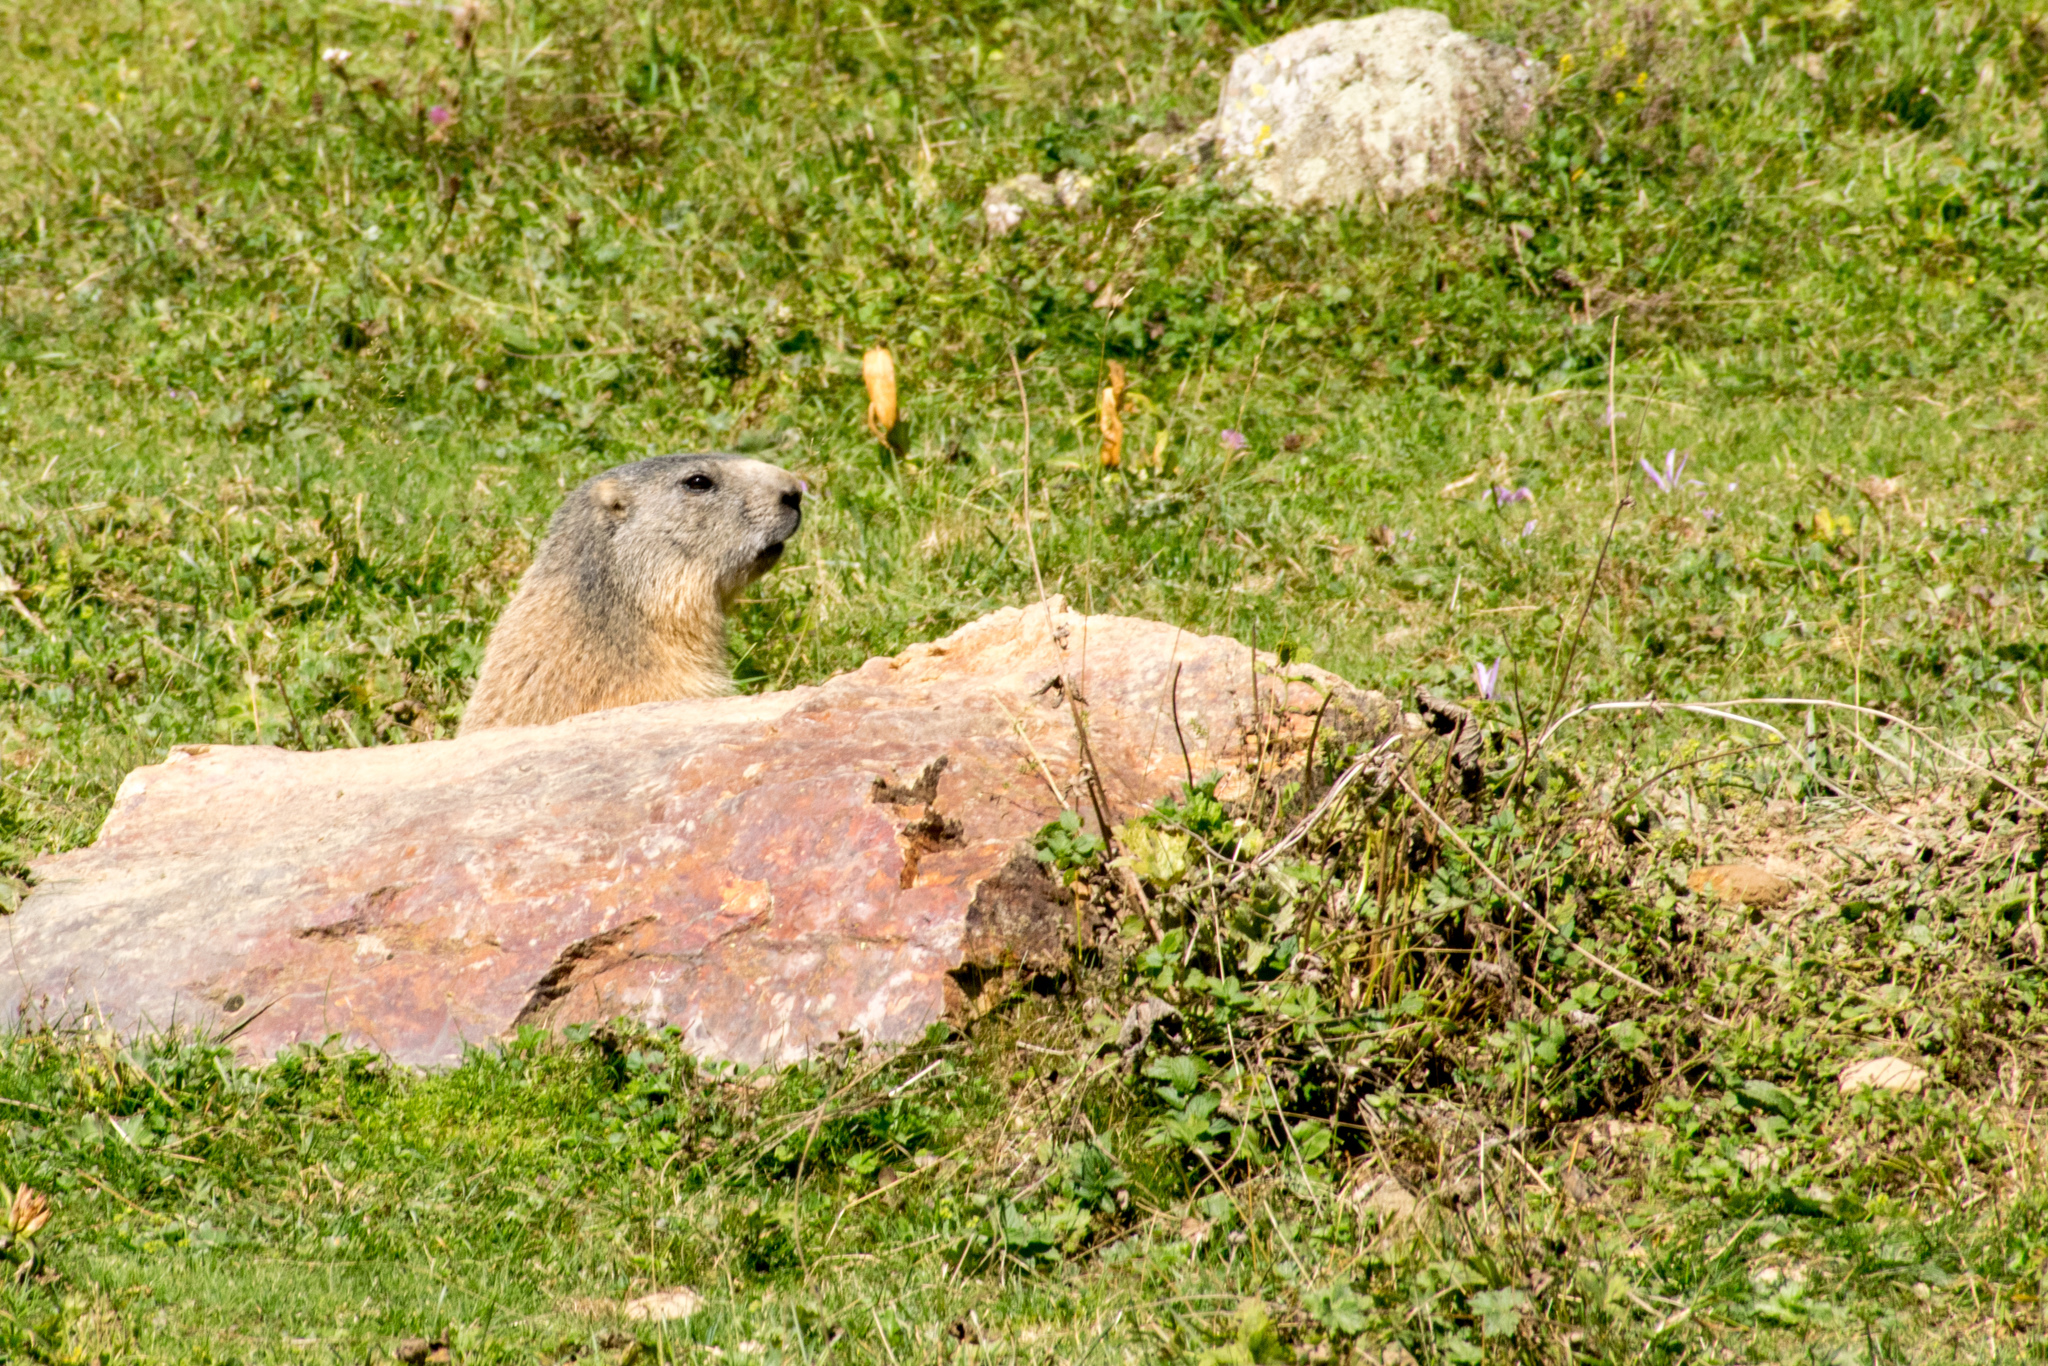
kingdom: Animalia
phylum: Chordata
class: Mammalia
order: Rodentia
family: Sciuridae
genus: Marmota
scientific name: Marmota marmota
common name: Alpine marmot
